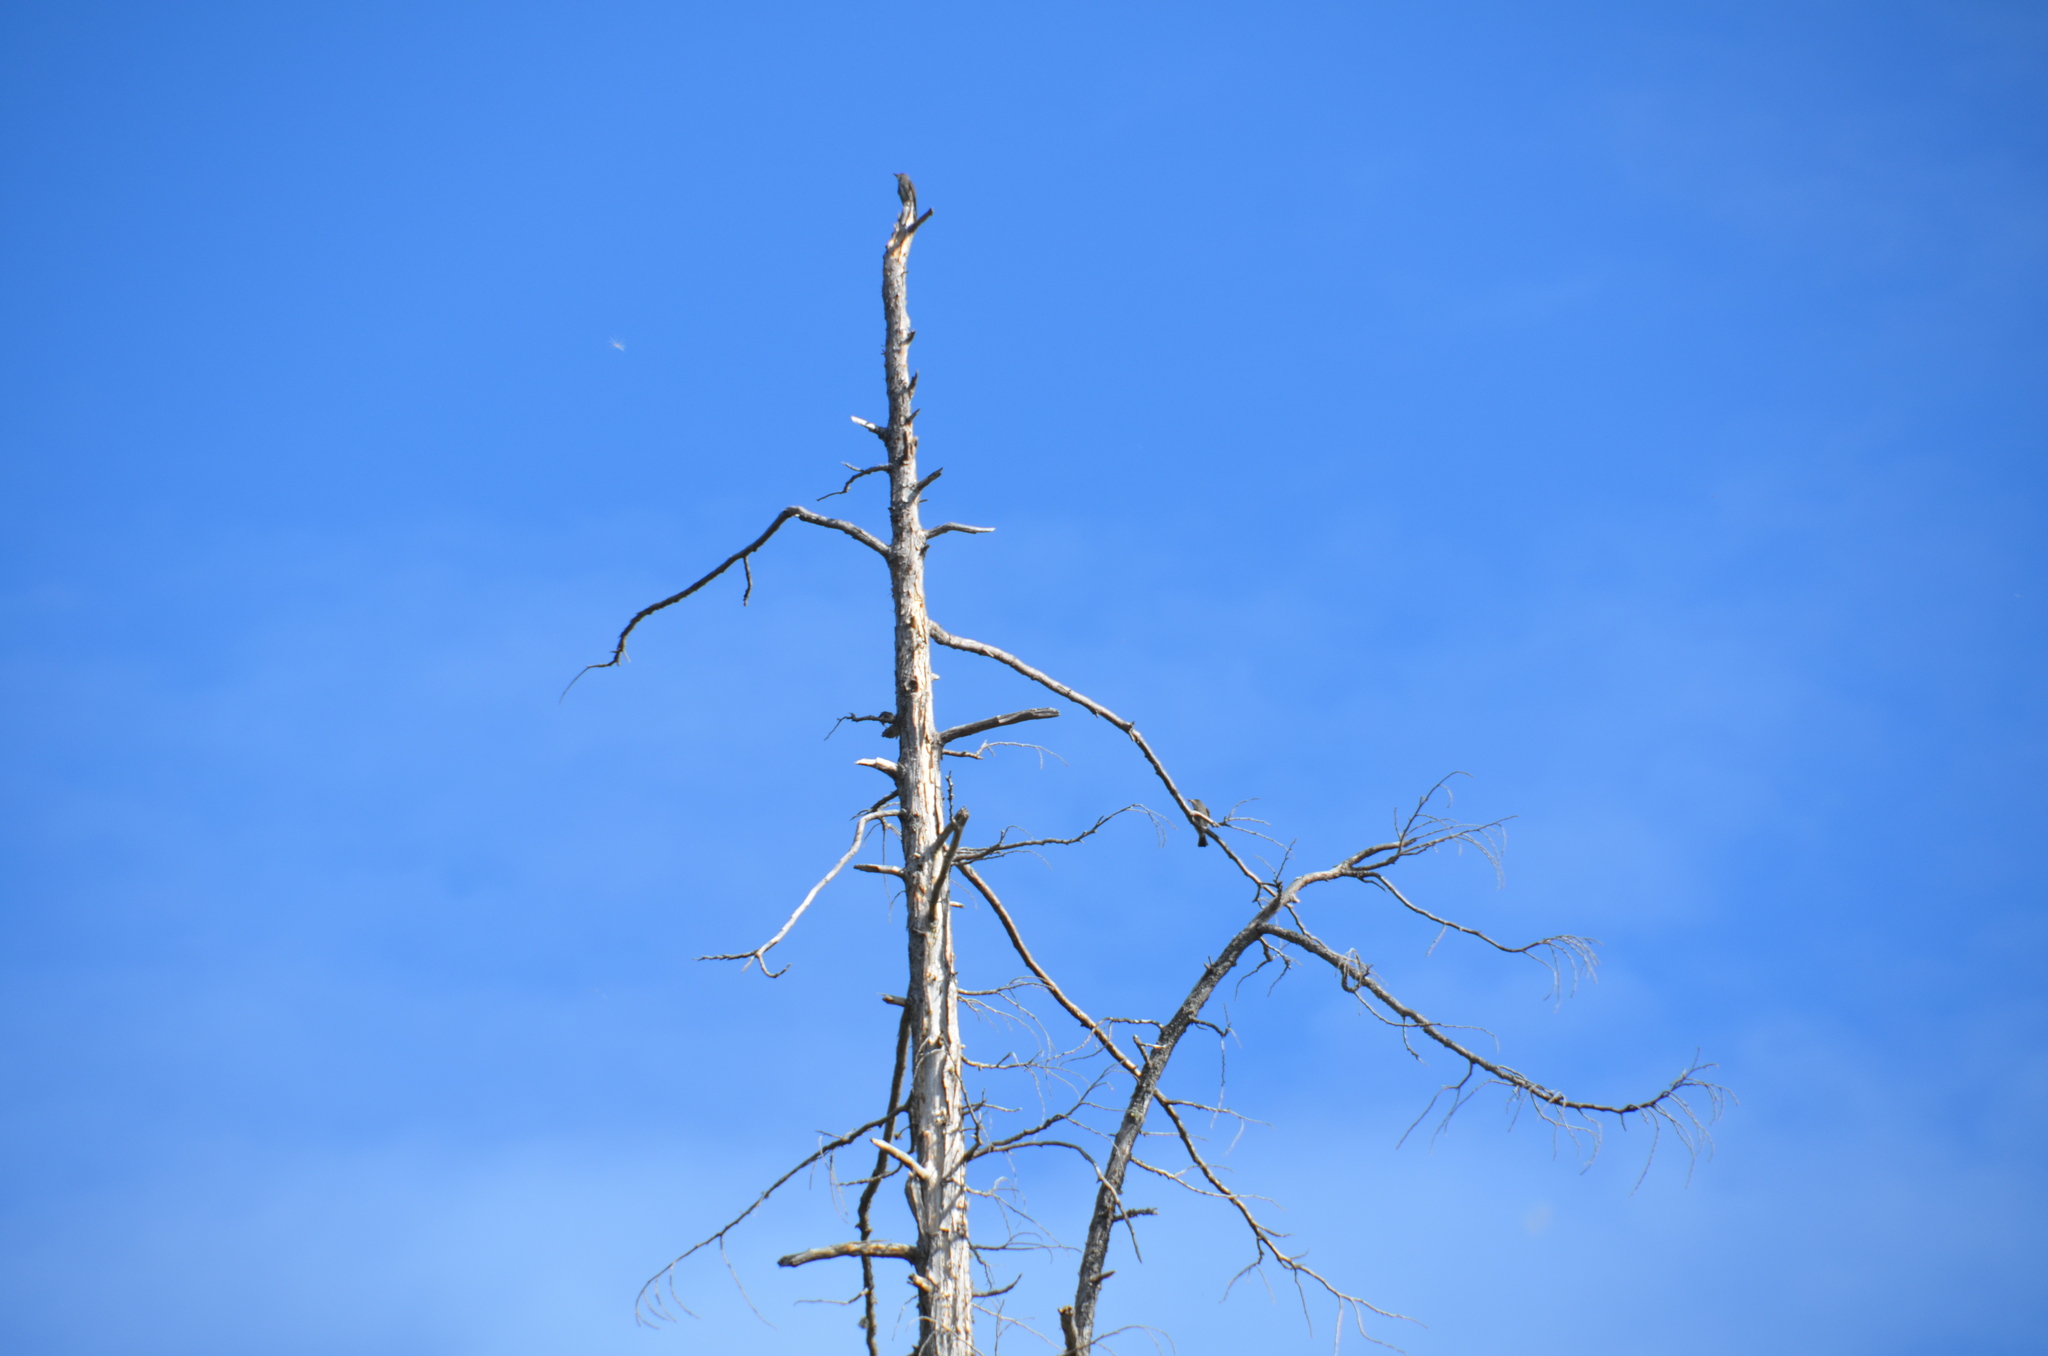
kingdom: Animalia
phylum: Chordata
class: Aves
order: Passeriformes
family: Tyrannidae
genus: Contopus
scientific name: Contopus cooperi
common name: Olive-sided flycatcher
